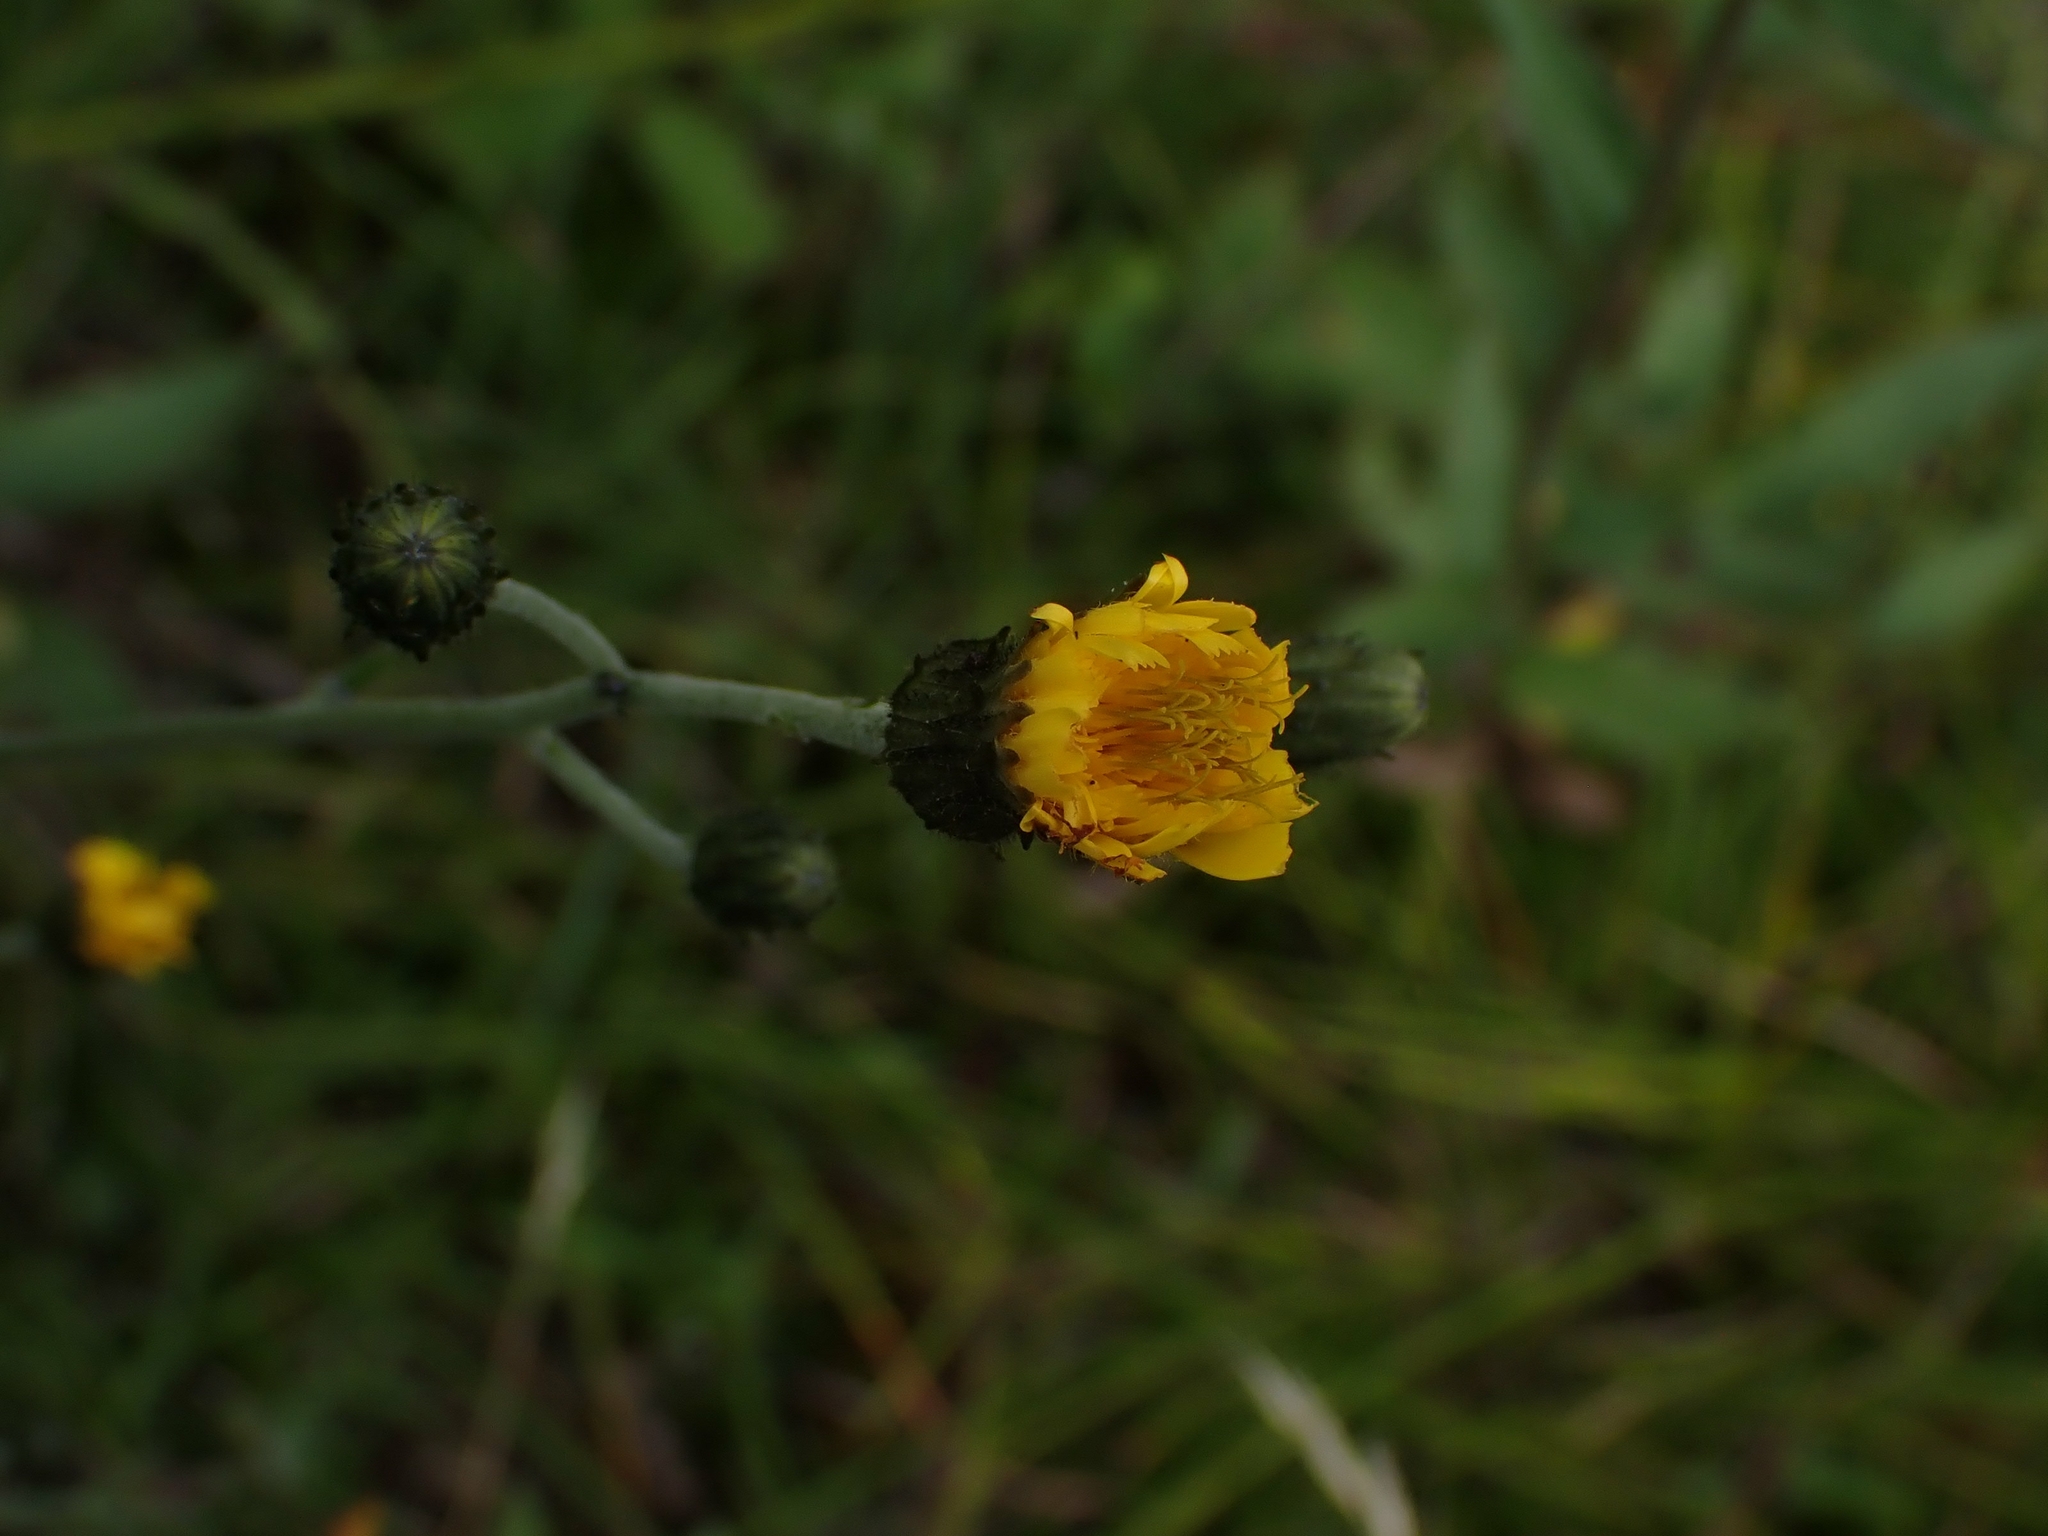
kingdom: Plantae
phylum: Tracheophyta
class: Magnoliopsida
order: Asterales
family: Asteraceae
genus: Hieracium
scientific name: Hieracium umbellatum
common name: Northern hawkweed
